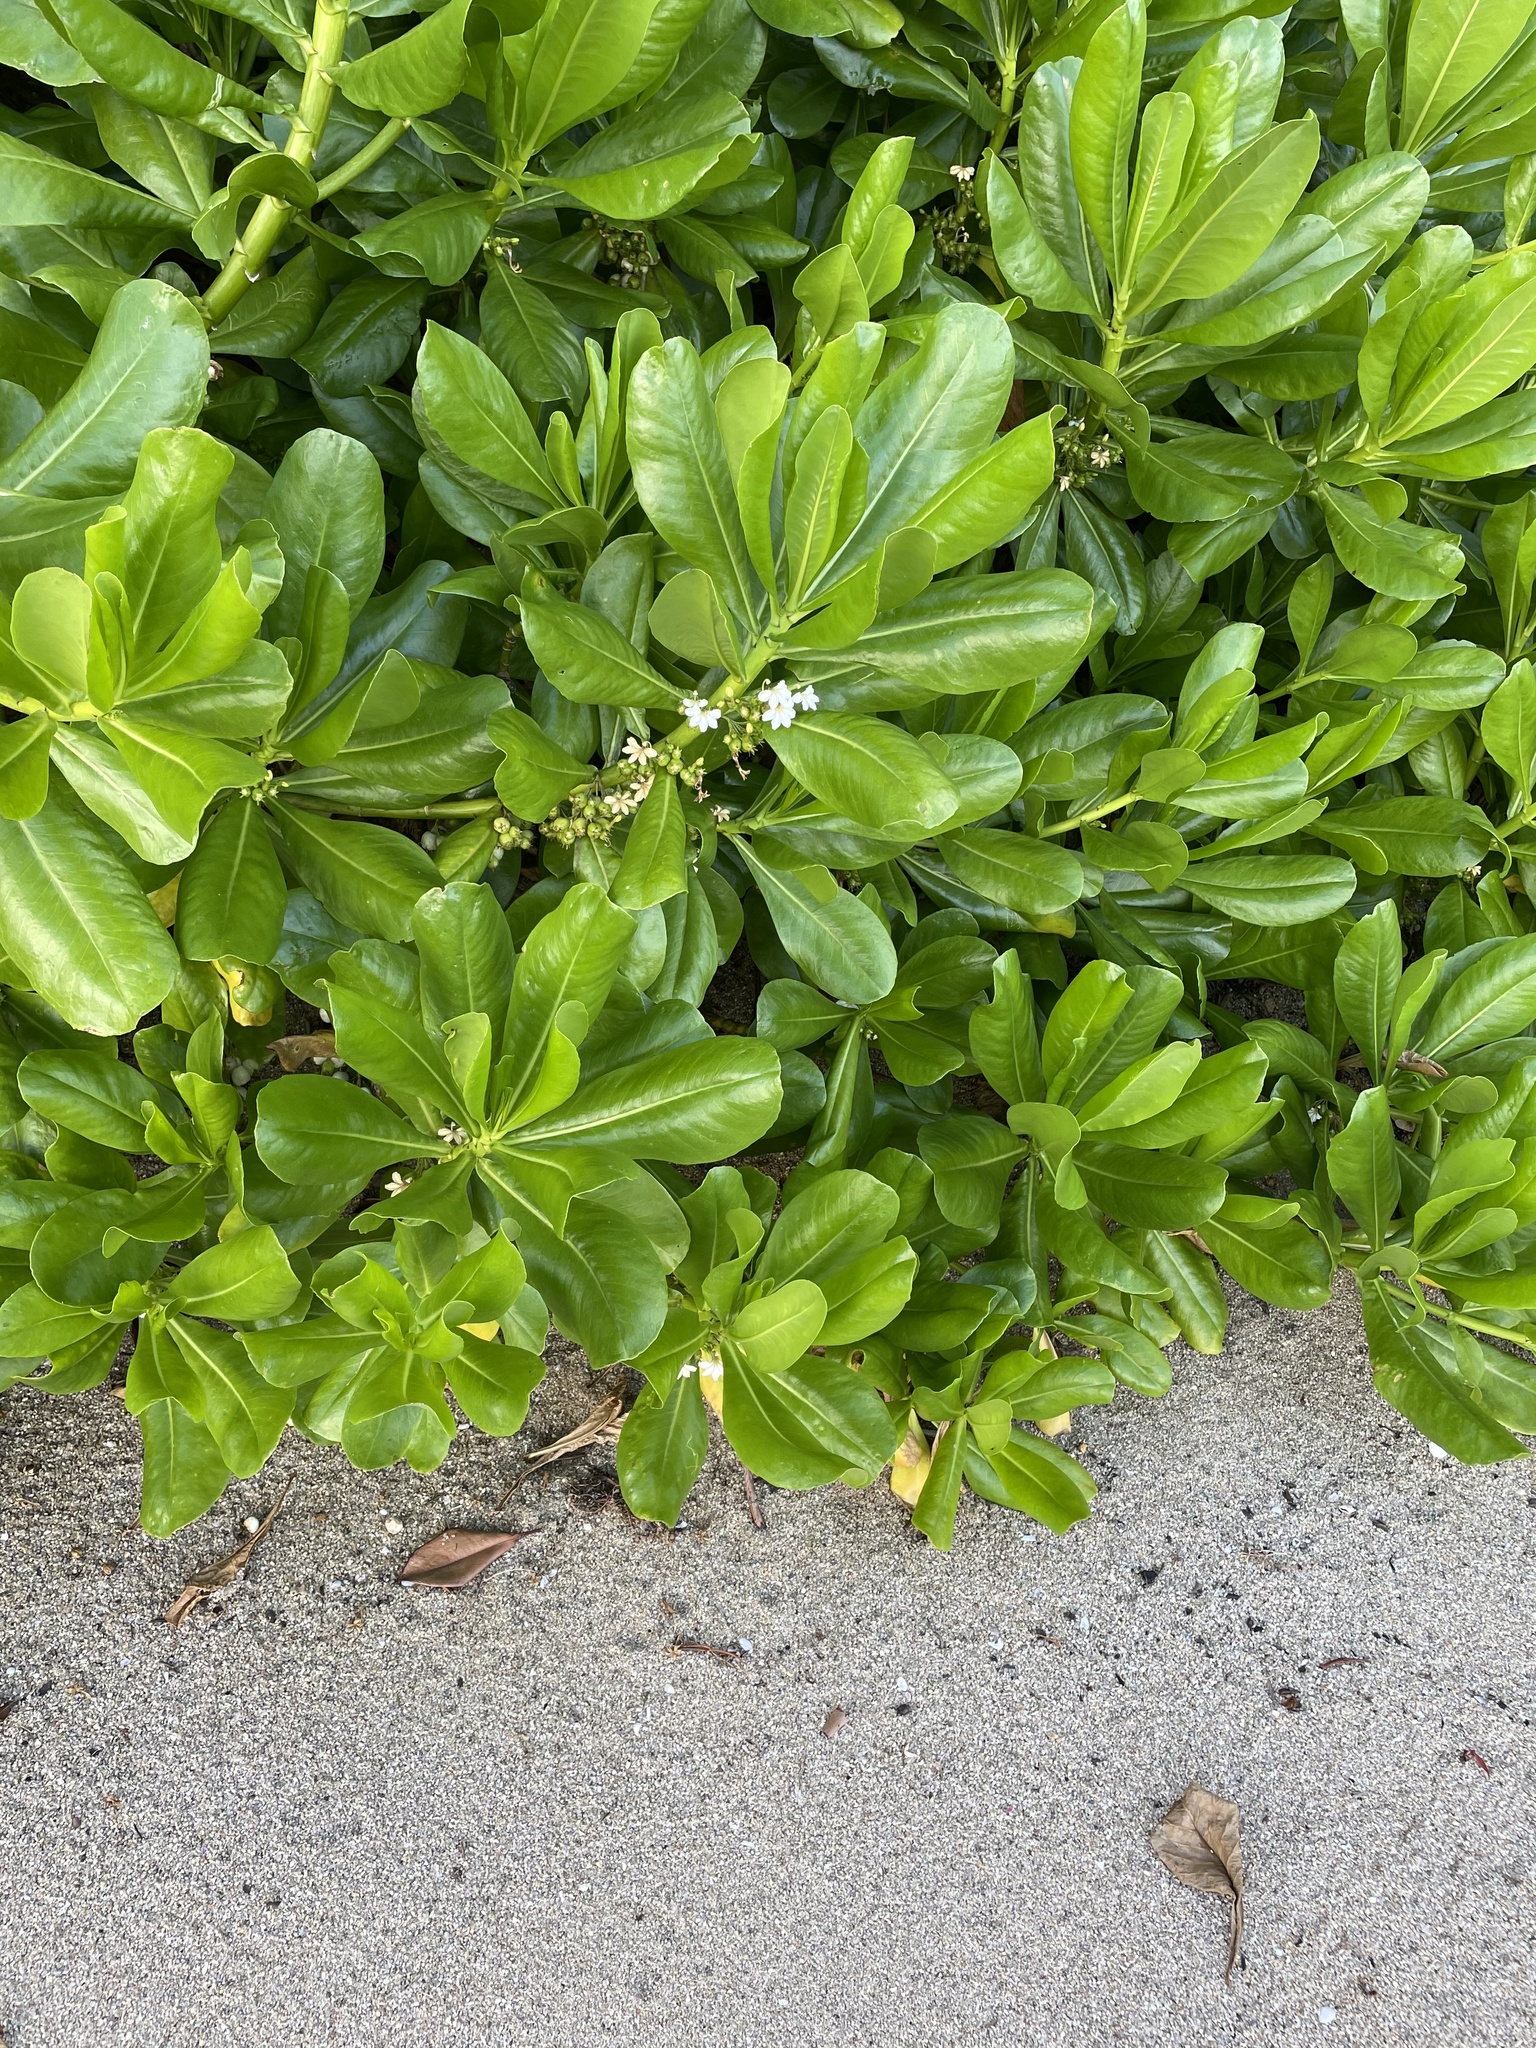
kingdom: Plantae
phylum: Tracheophyta
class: Magnoliopsida
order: Asterales
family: Goodeniaceae
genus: Scaevola
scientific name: Scaevola taccada
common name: Sea lettucetree
